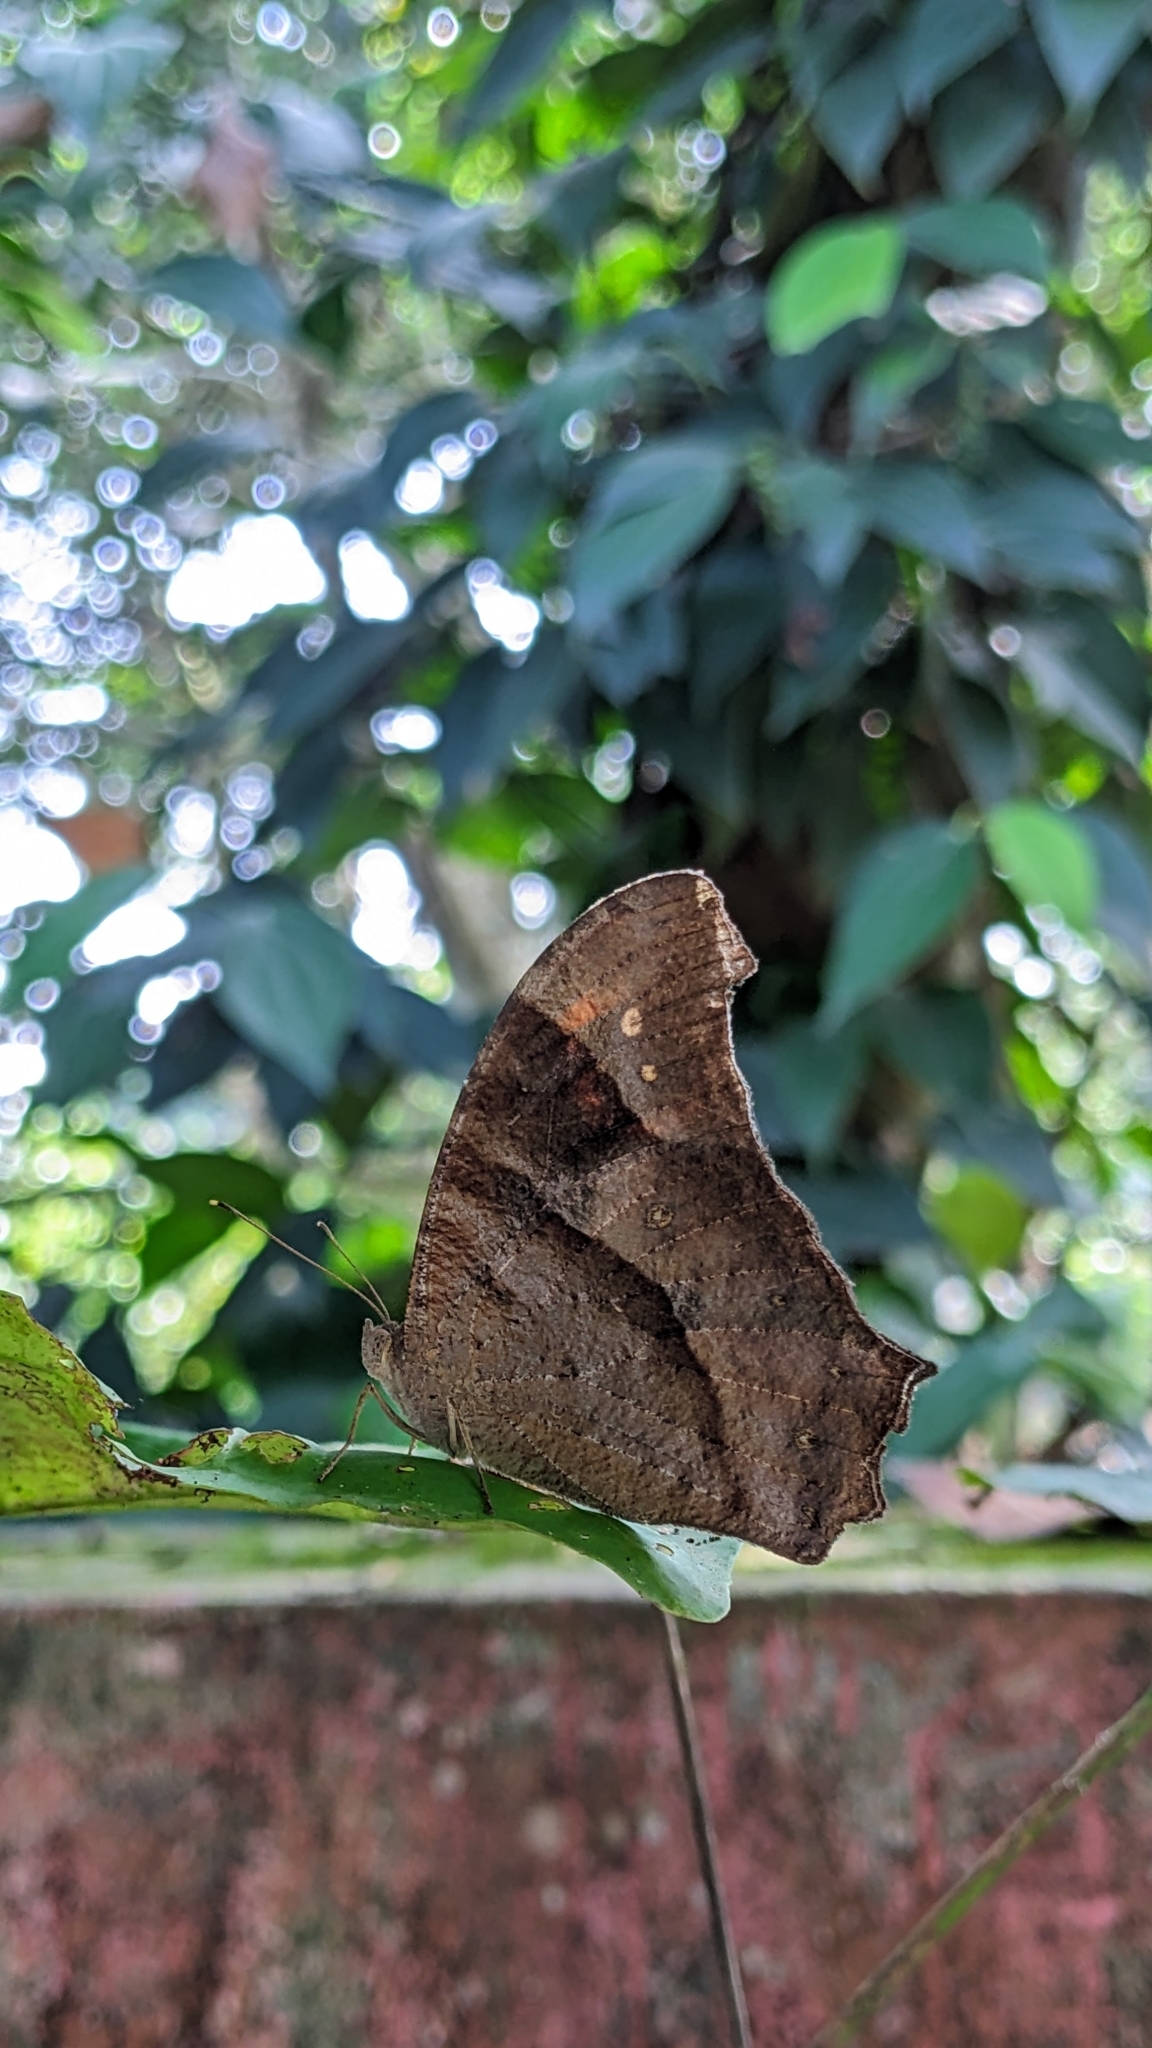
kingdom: Animalia
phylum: Arthropoda
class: Insecta
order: Lepidoptera
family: Nymphalidae
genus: Melanitis
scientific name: Melanitis leda
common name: Twilight brown
